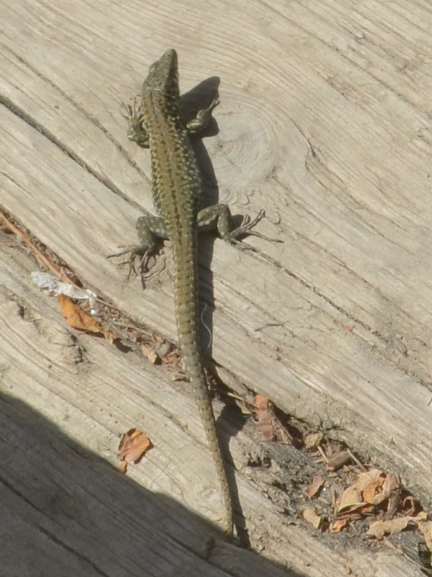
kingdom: Animalia
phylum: Chordata
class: Squamata
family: Lacertidae
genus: Podarcis
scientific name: Podarcis muralis
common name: Common wall lizard
